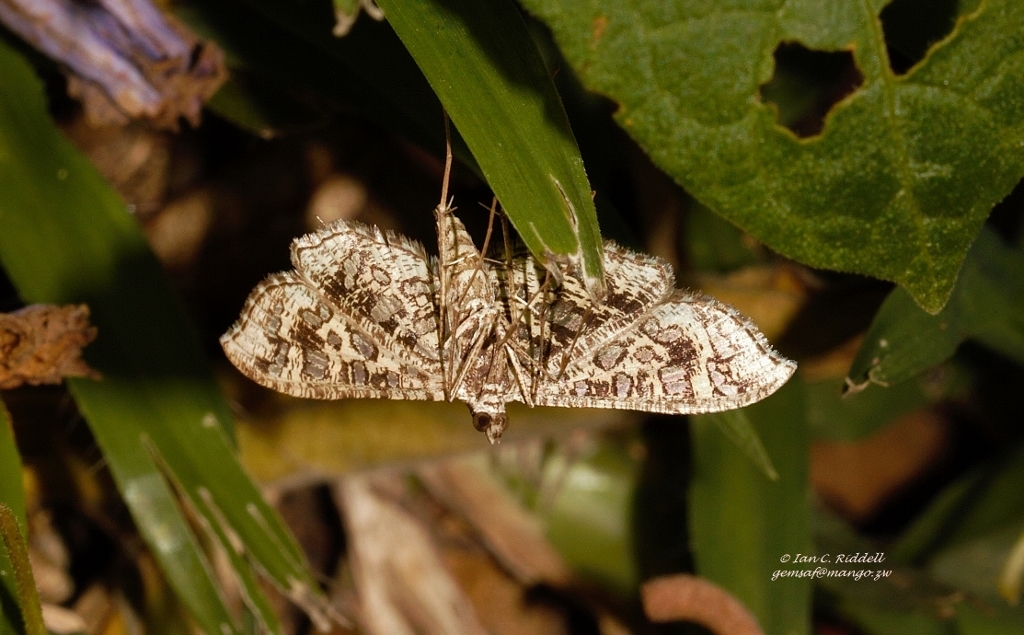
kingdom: Animalia
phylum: Arthropoda
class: Insecta
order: Lepidoptera
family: Crambidae
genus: Nausinoe
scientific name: Nausinoe geometralis
